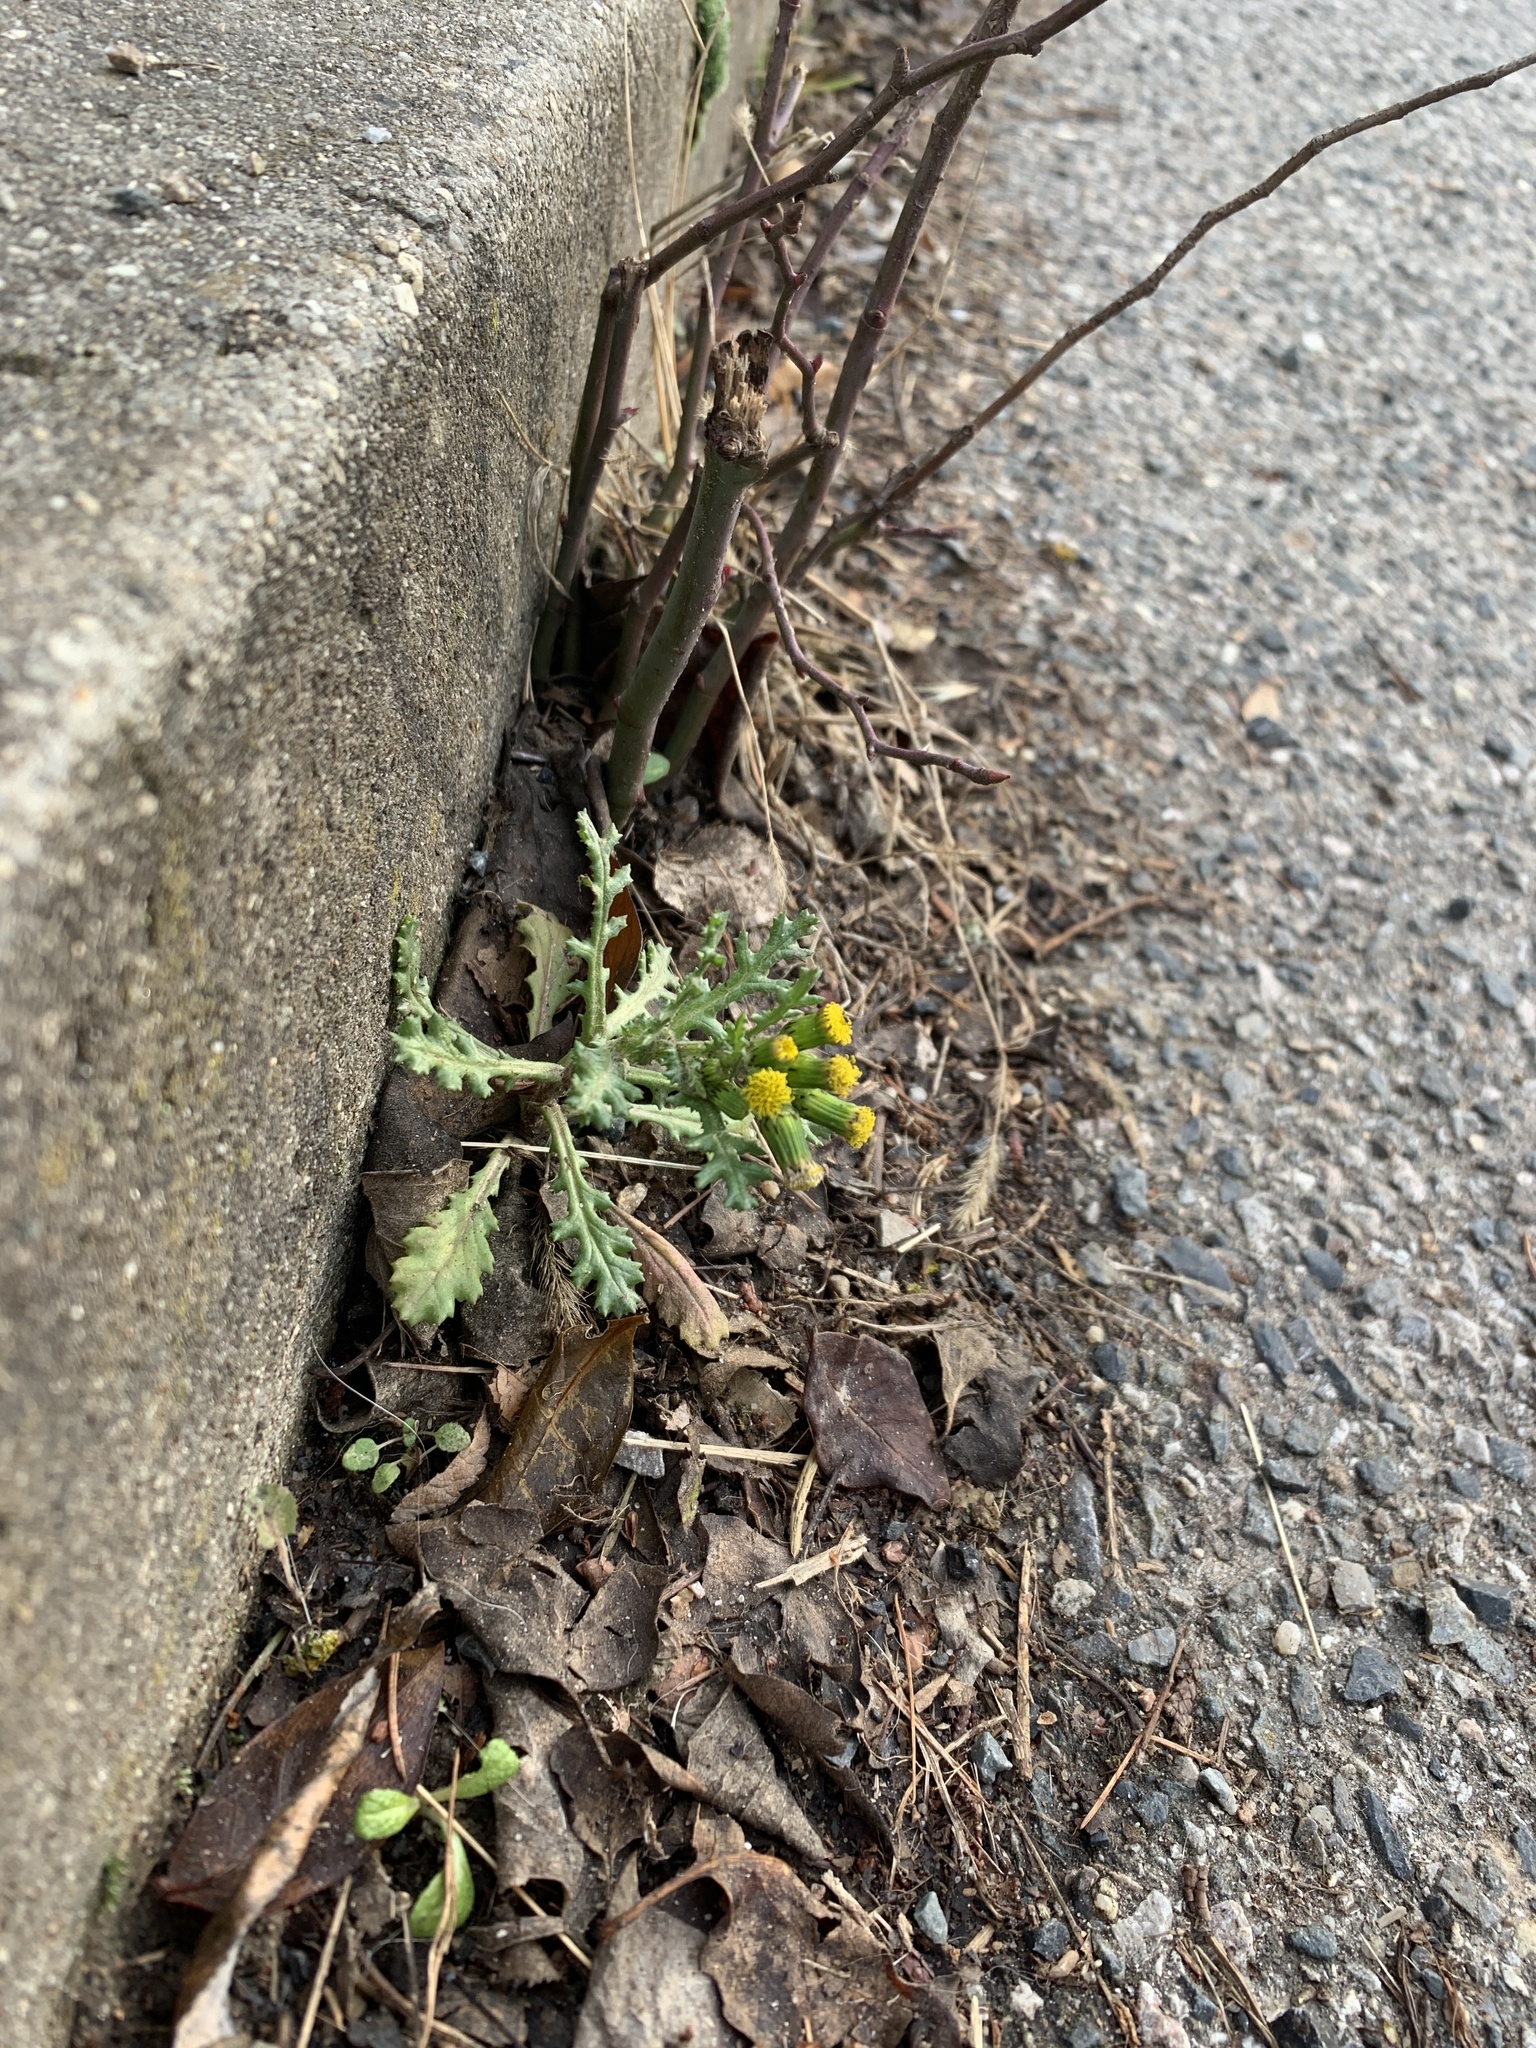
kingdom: Plantae
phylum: Tracheophyta
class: Magnoliopsida
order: Asterales
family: Asteraceae
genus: Senecio
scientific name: Senecio vulgaris
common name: Old-man-in-the-spring
